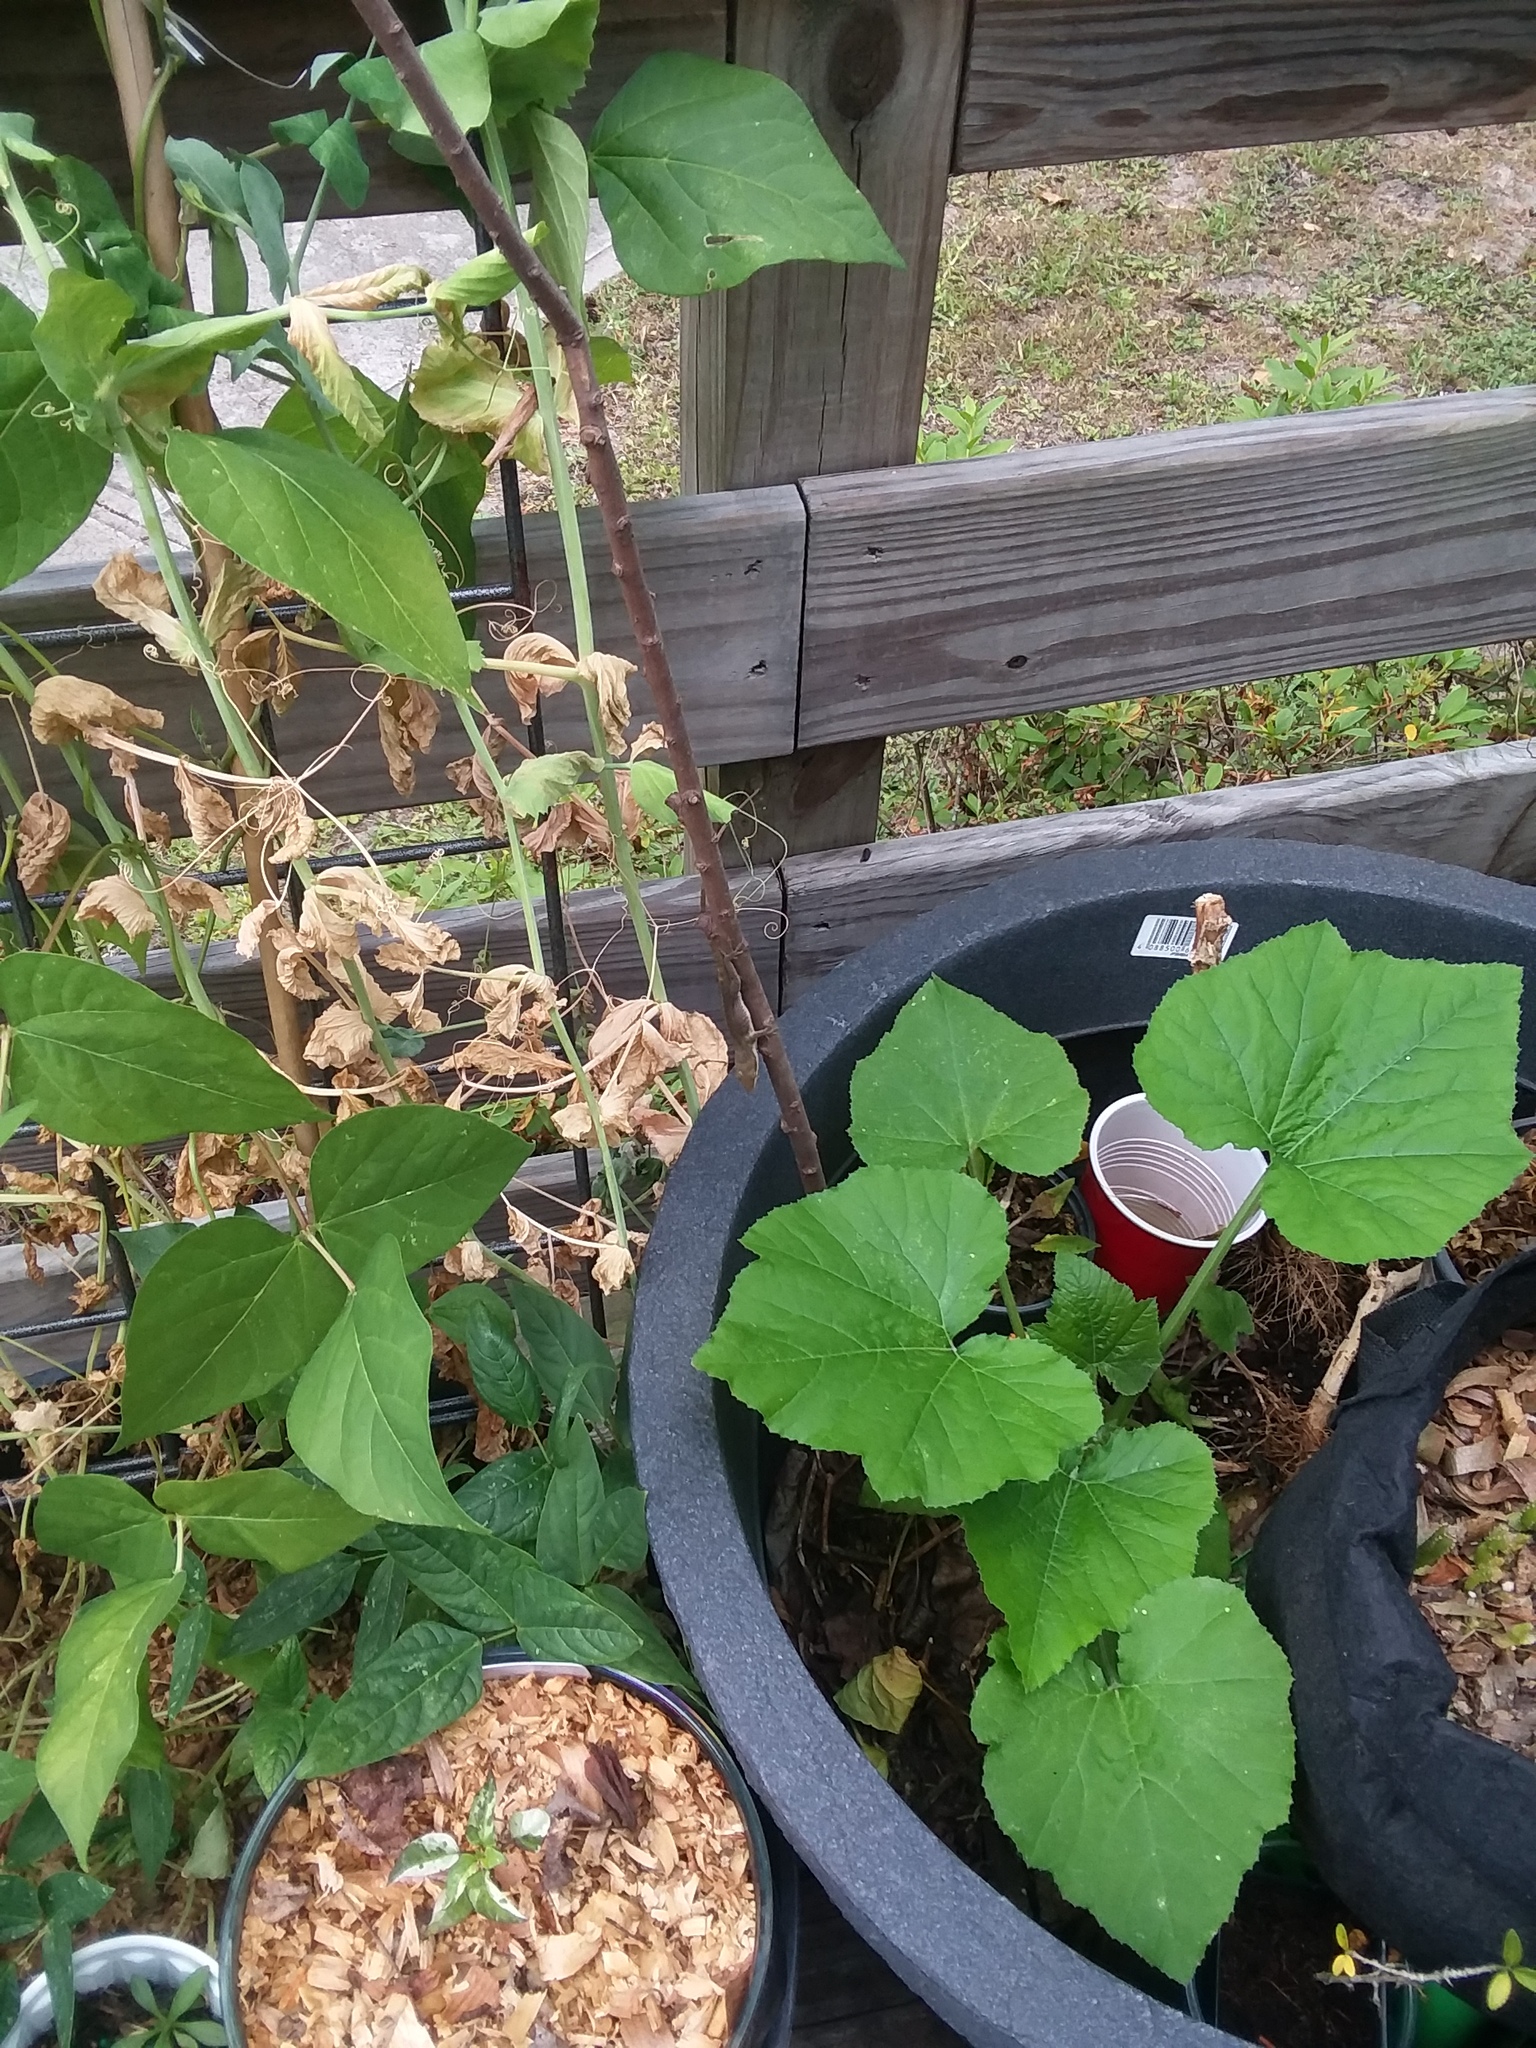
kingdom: Animalia
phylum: Chordata
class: Squamata
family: Dactyloidae
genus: Anolis
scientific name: Anolis carolinensis
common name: Green anole
